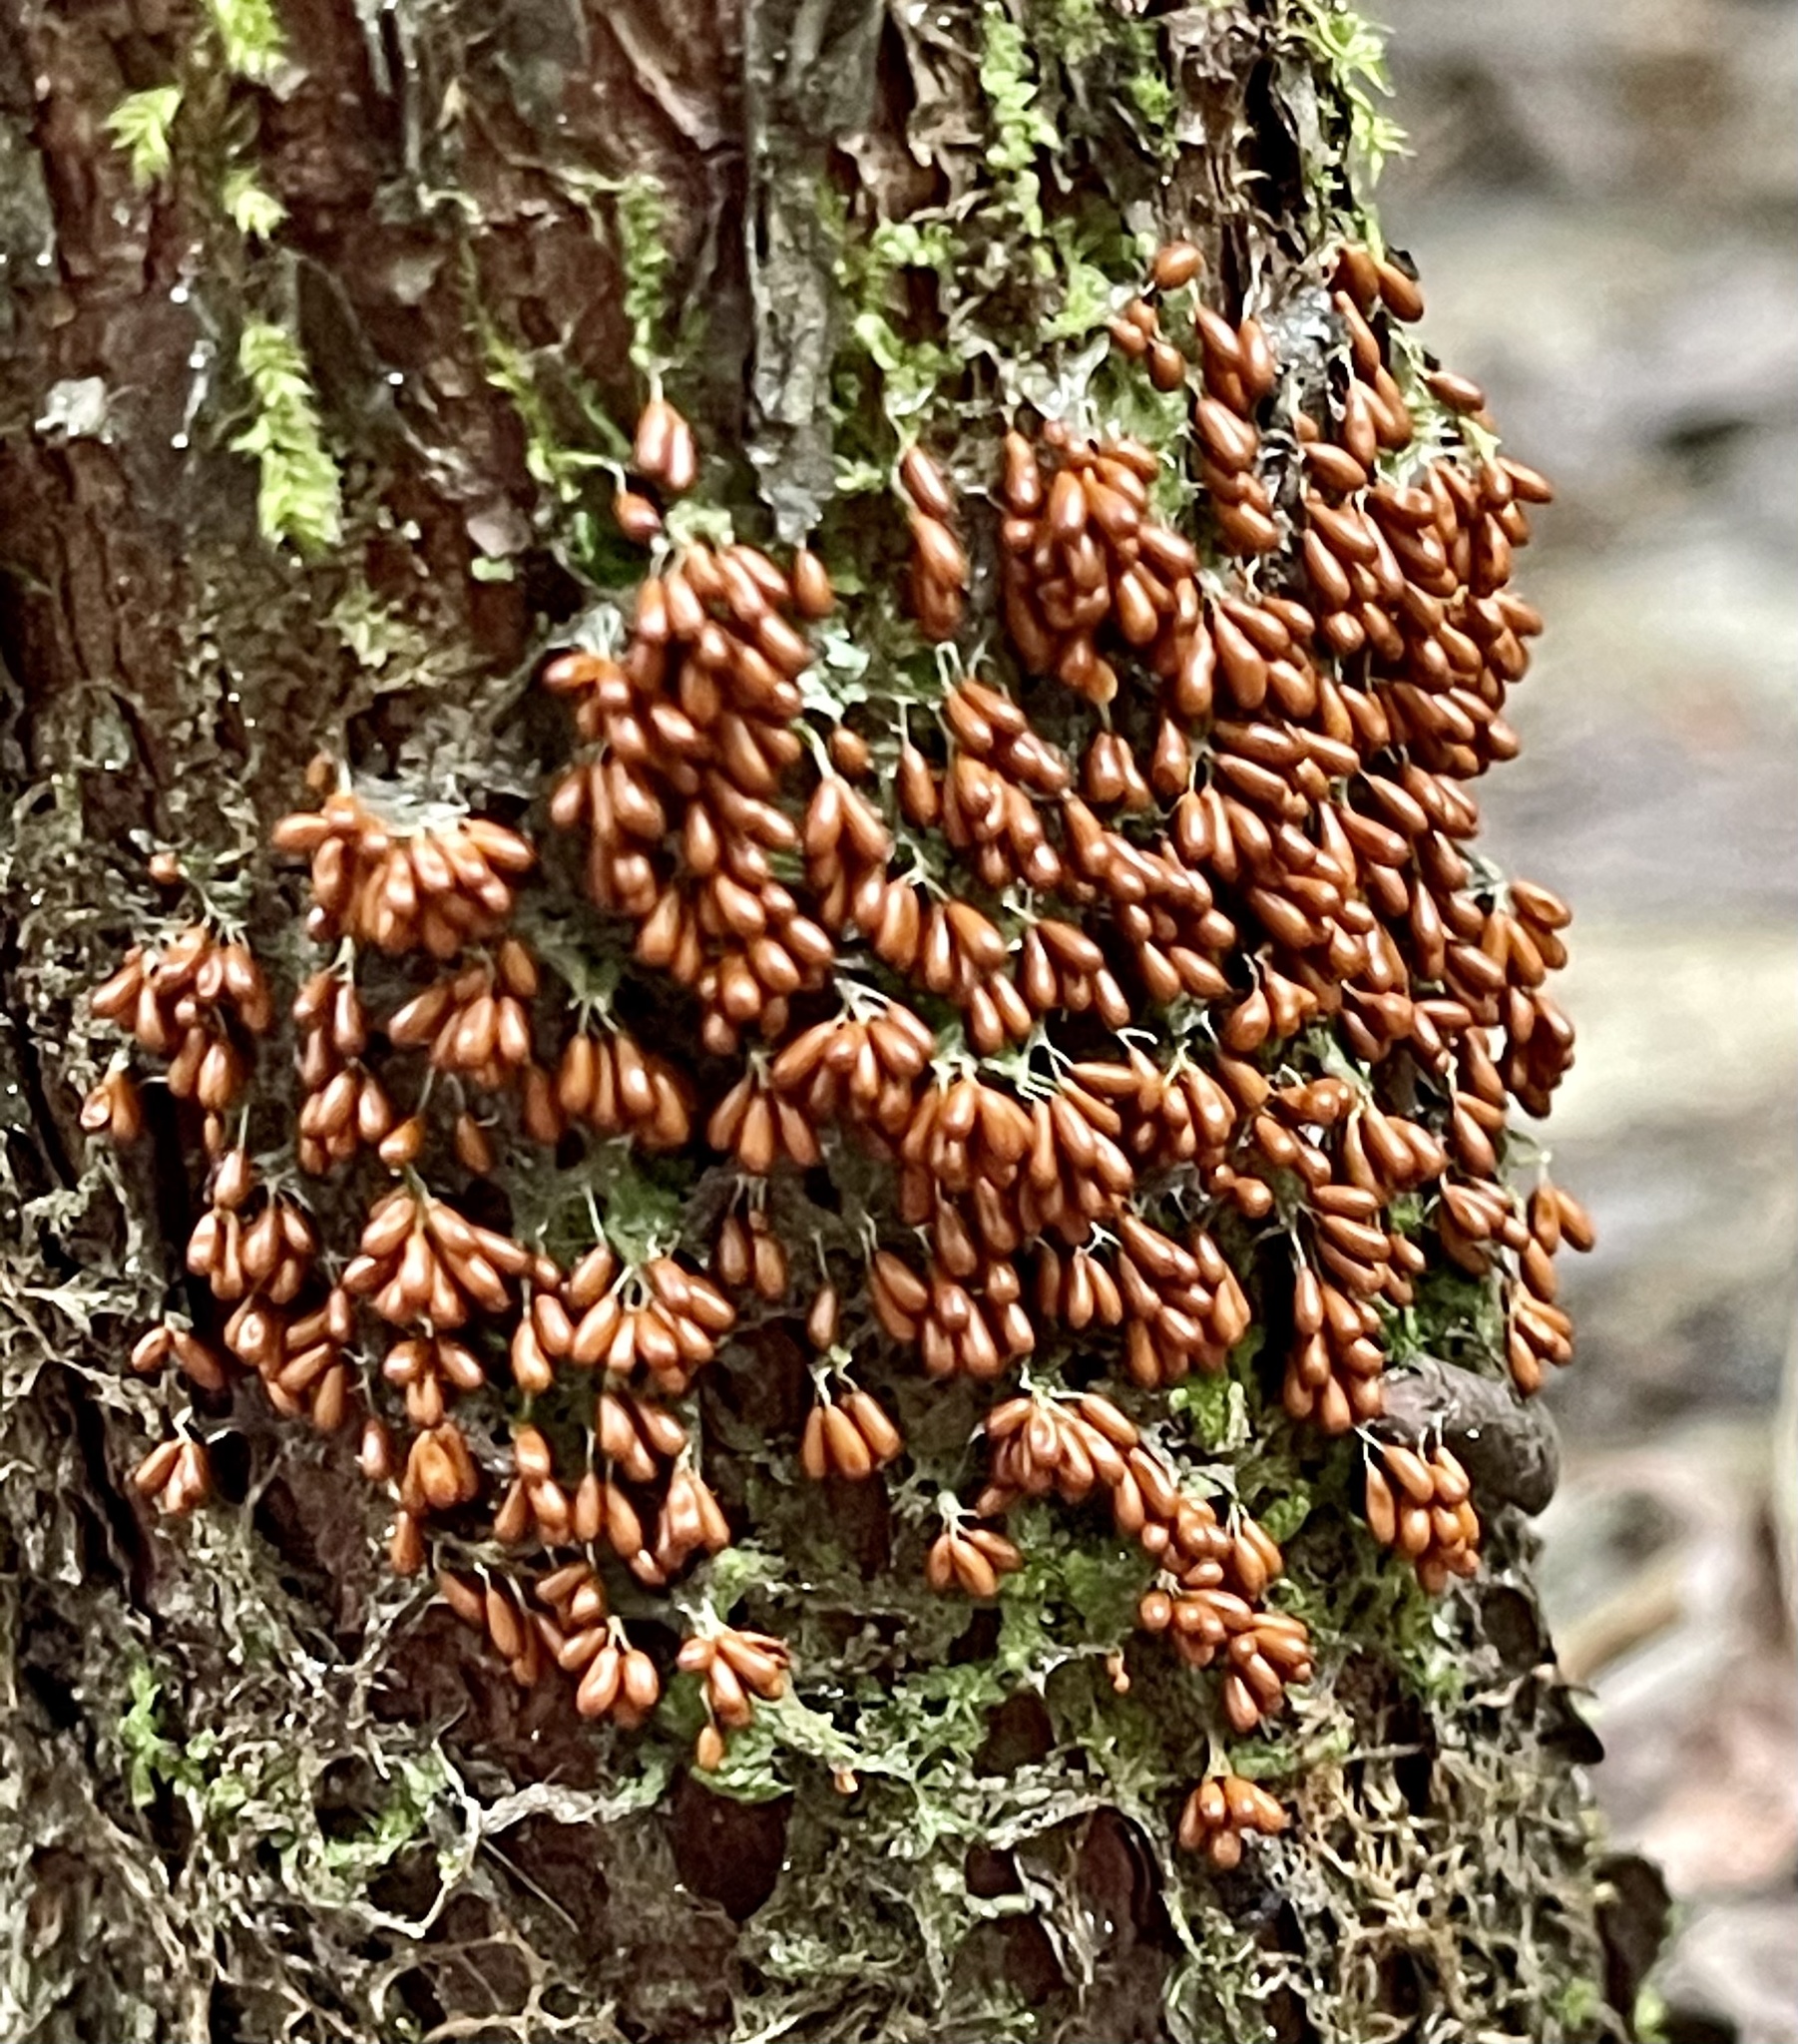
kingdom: Protozoa
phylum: Mycetozoa
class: Myxomycetes
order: Physarales
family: Physaraceae
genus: Leocarpus
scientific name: Leocarpus fragilis
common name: Insect-egg slime
